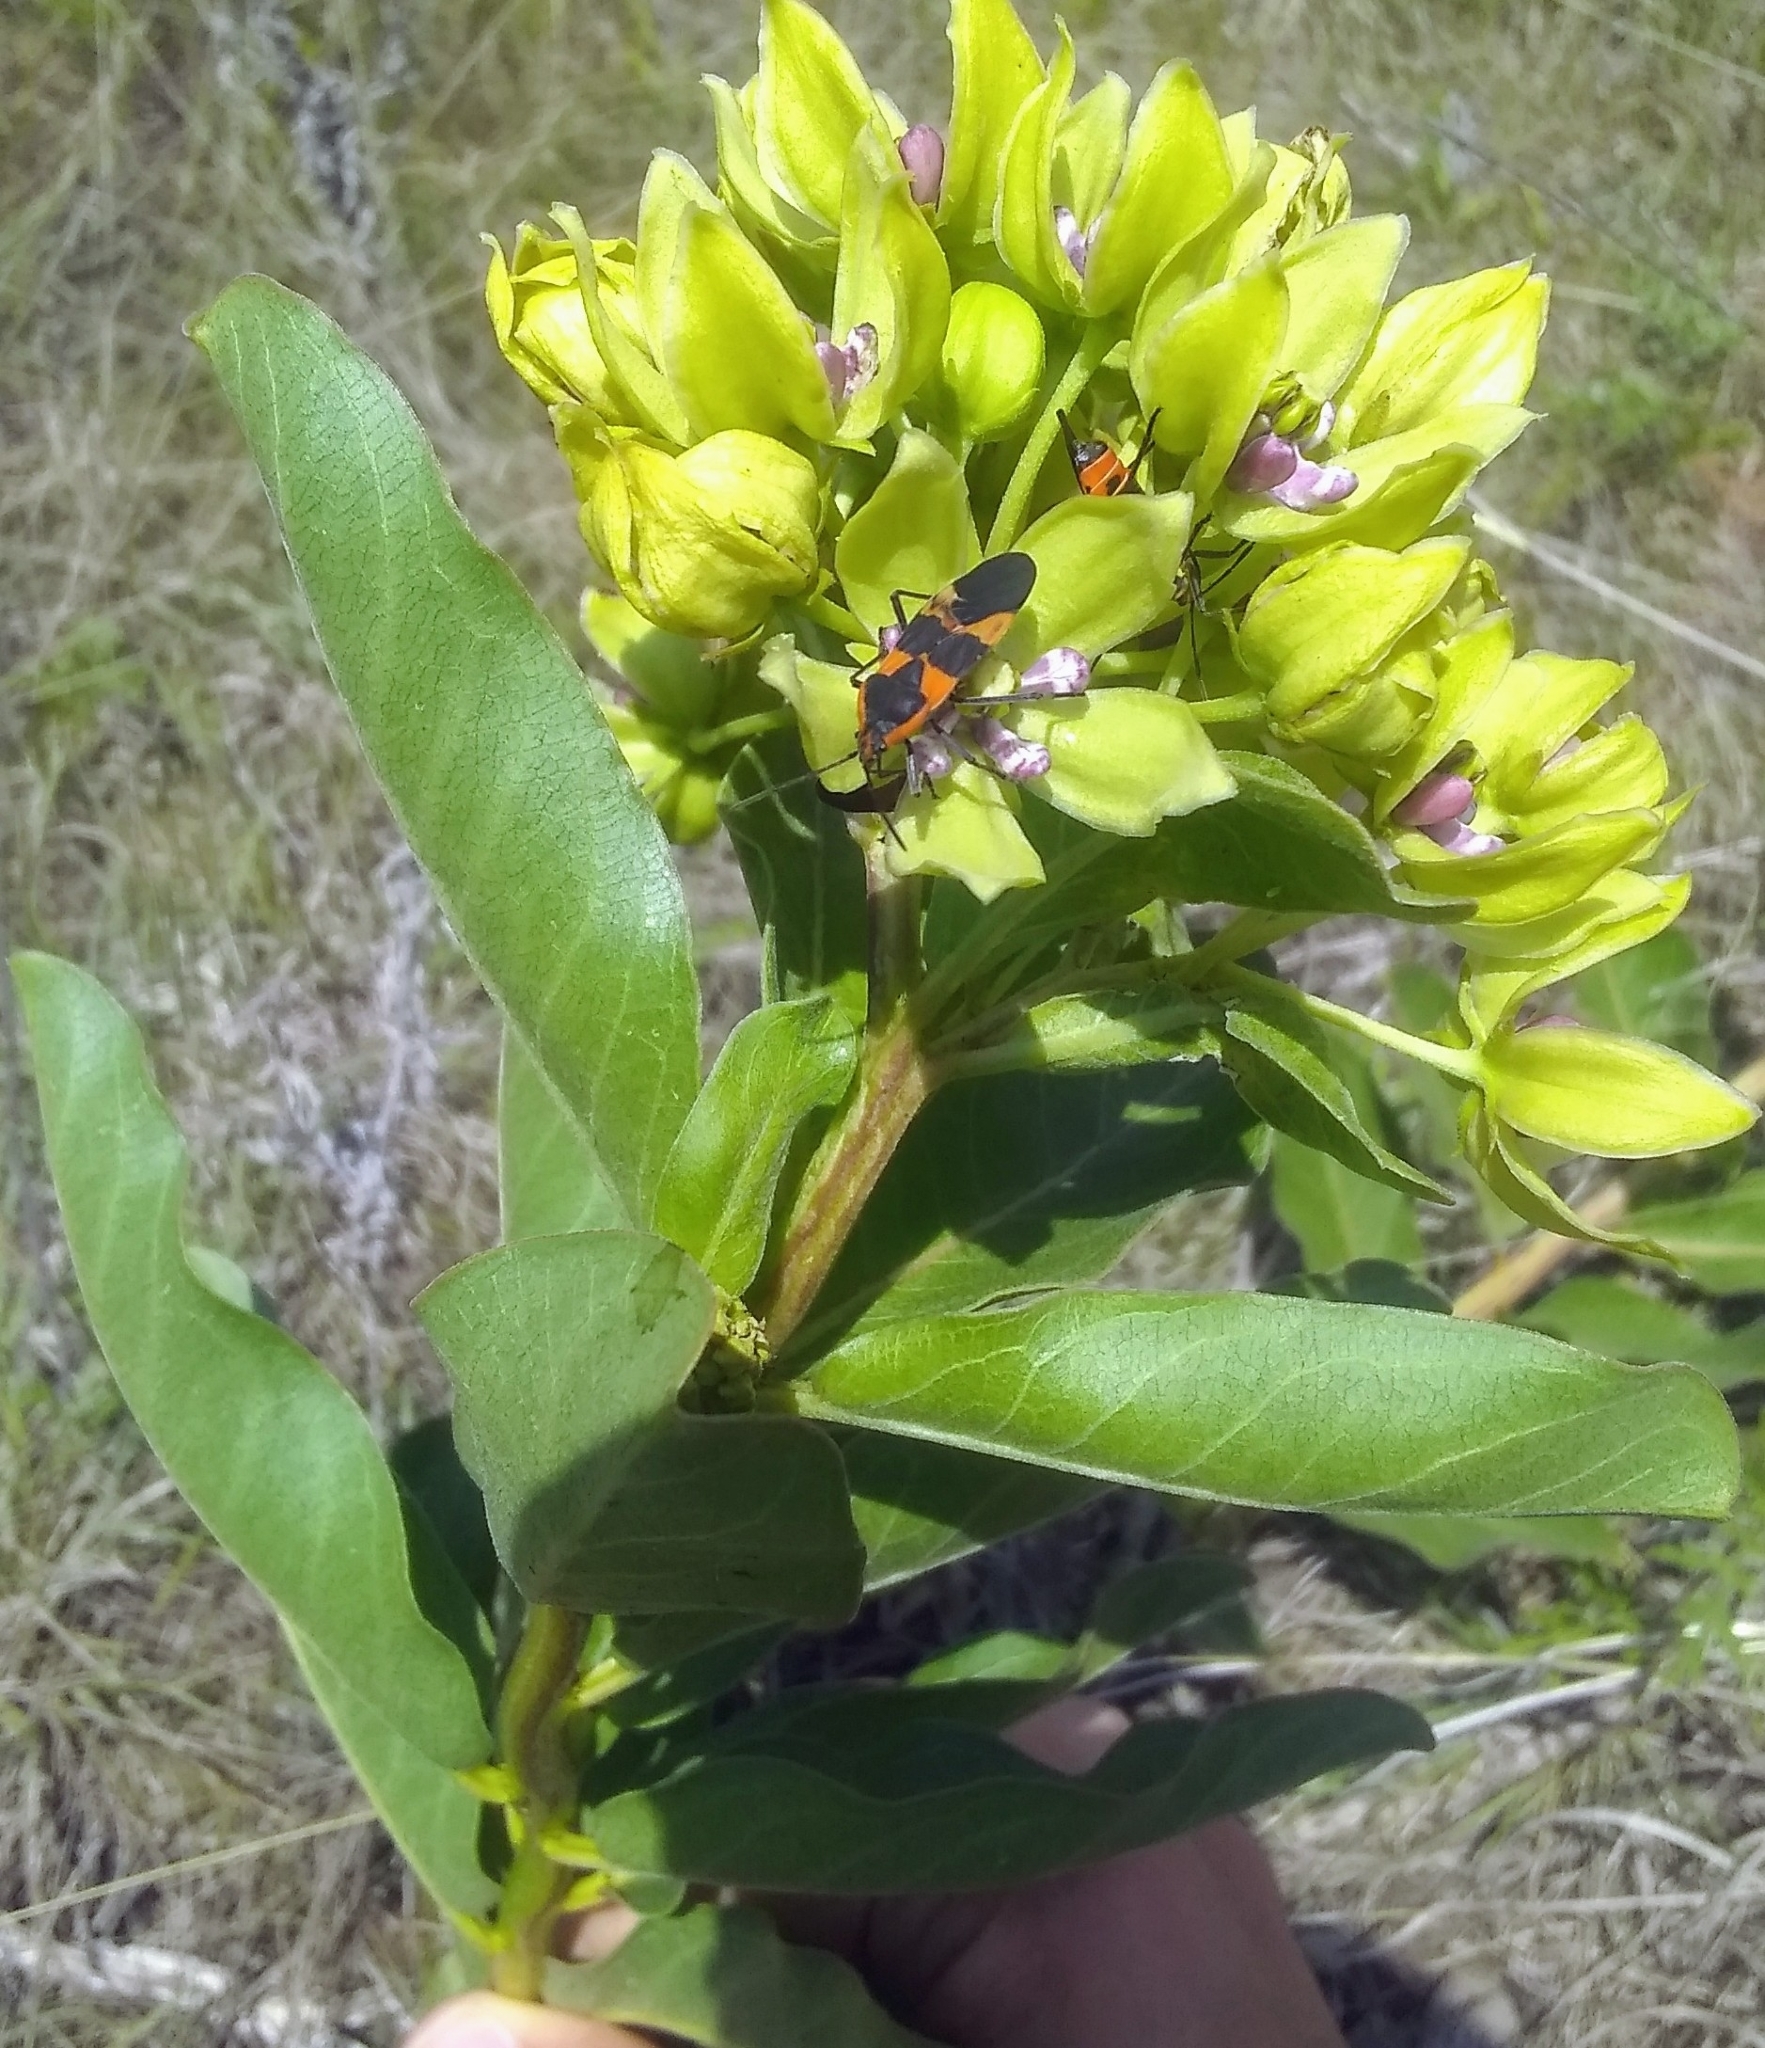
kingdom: Plantae
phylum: Tracheophyta
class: Magnoliopsida
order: Gentianales
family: Apocynaceae
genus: Asclepias
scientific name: Asclepias viridis
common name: Antelope-horns
